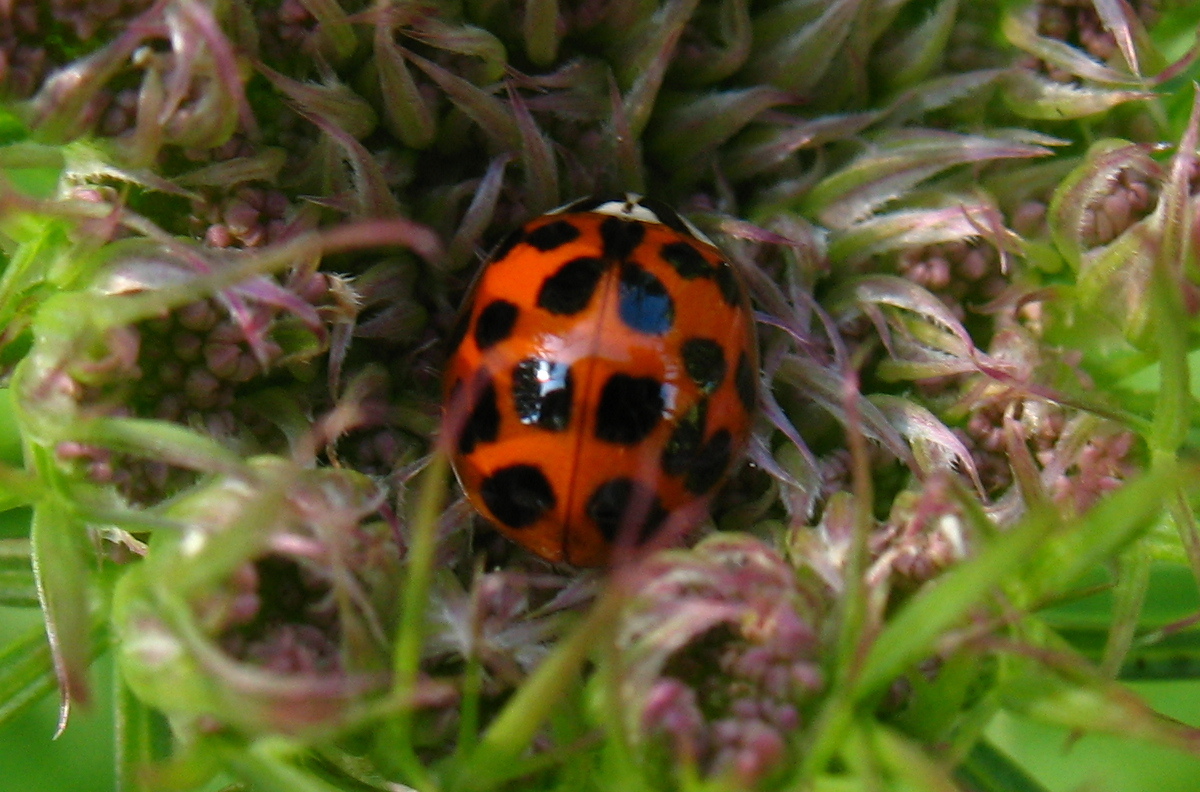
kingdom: Animalia
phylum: Arthropoda
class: Insecta
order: Coleoptera
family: Coccinellidae
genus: Harmonia
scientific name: Harmonia axyridis
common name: Harlequin ladybird
